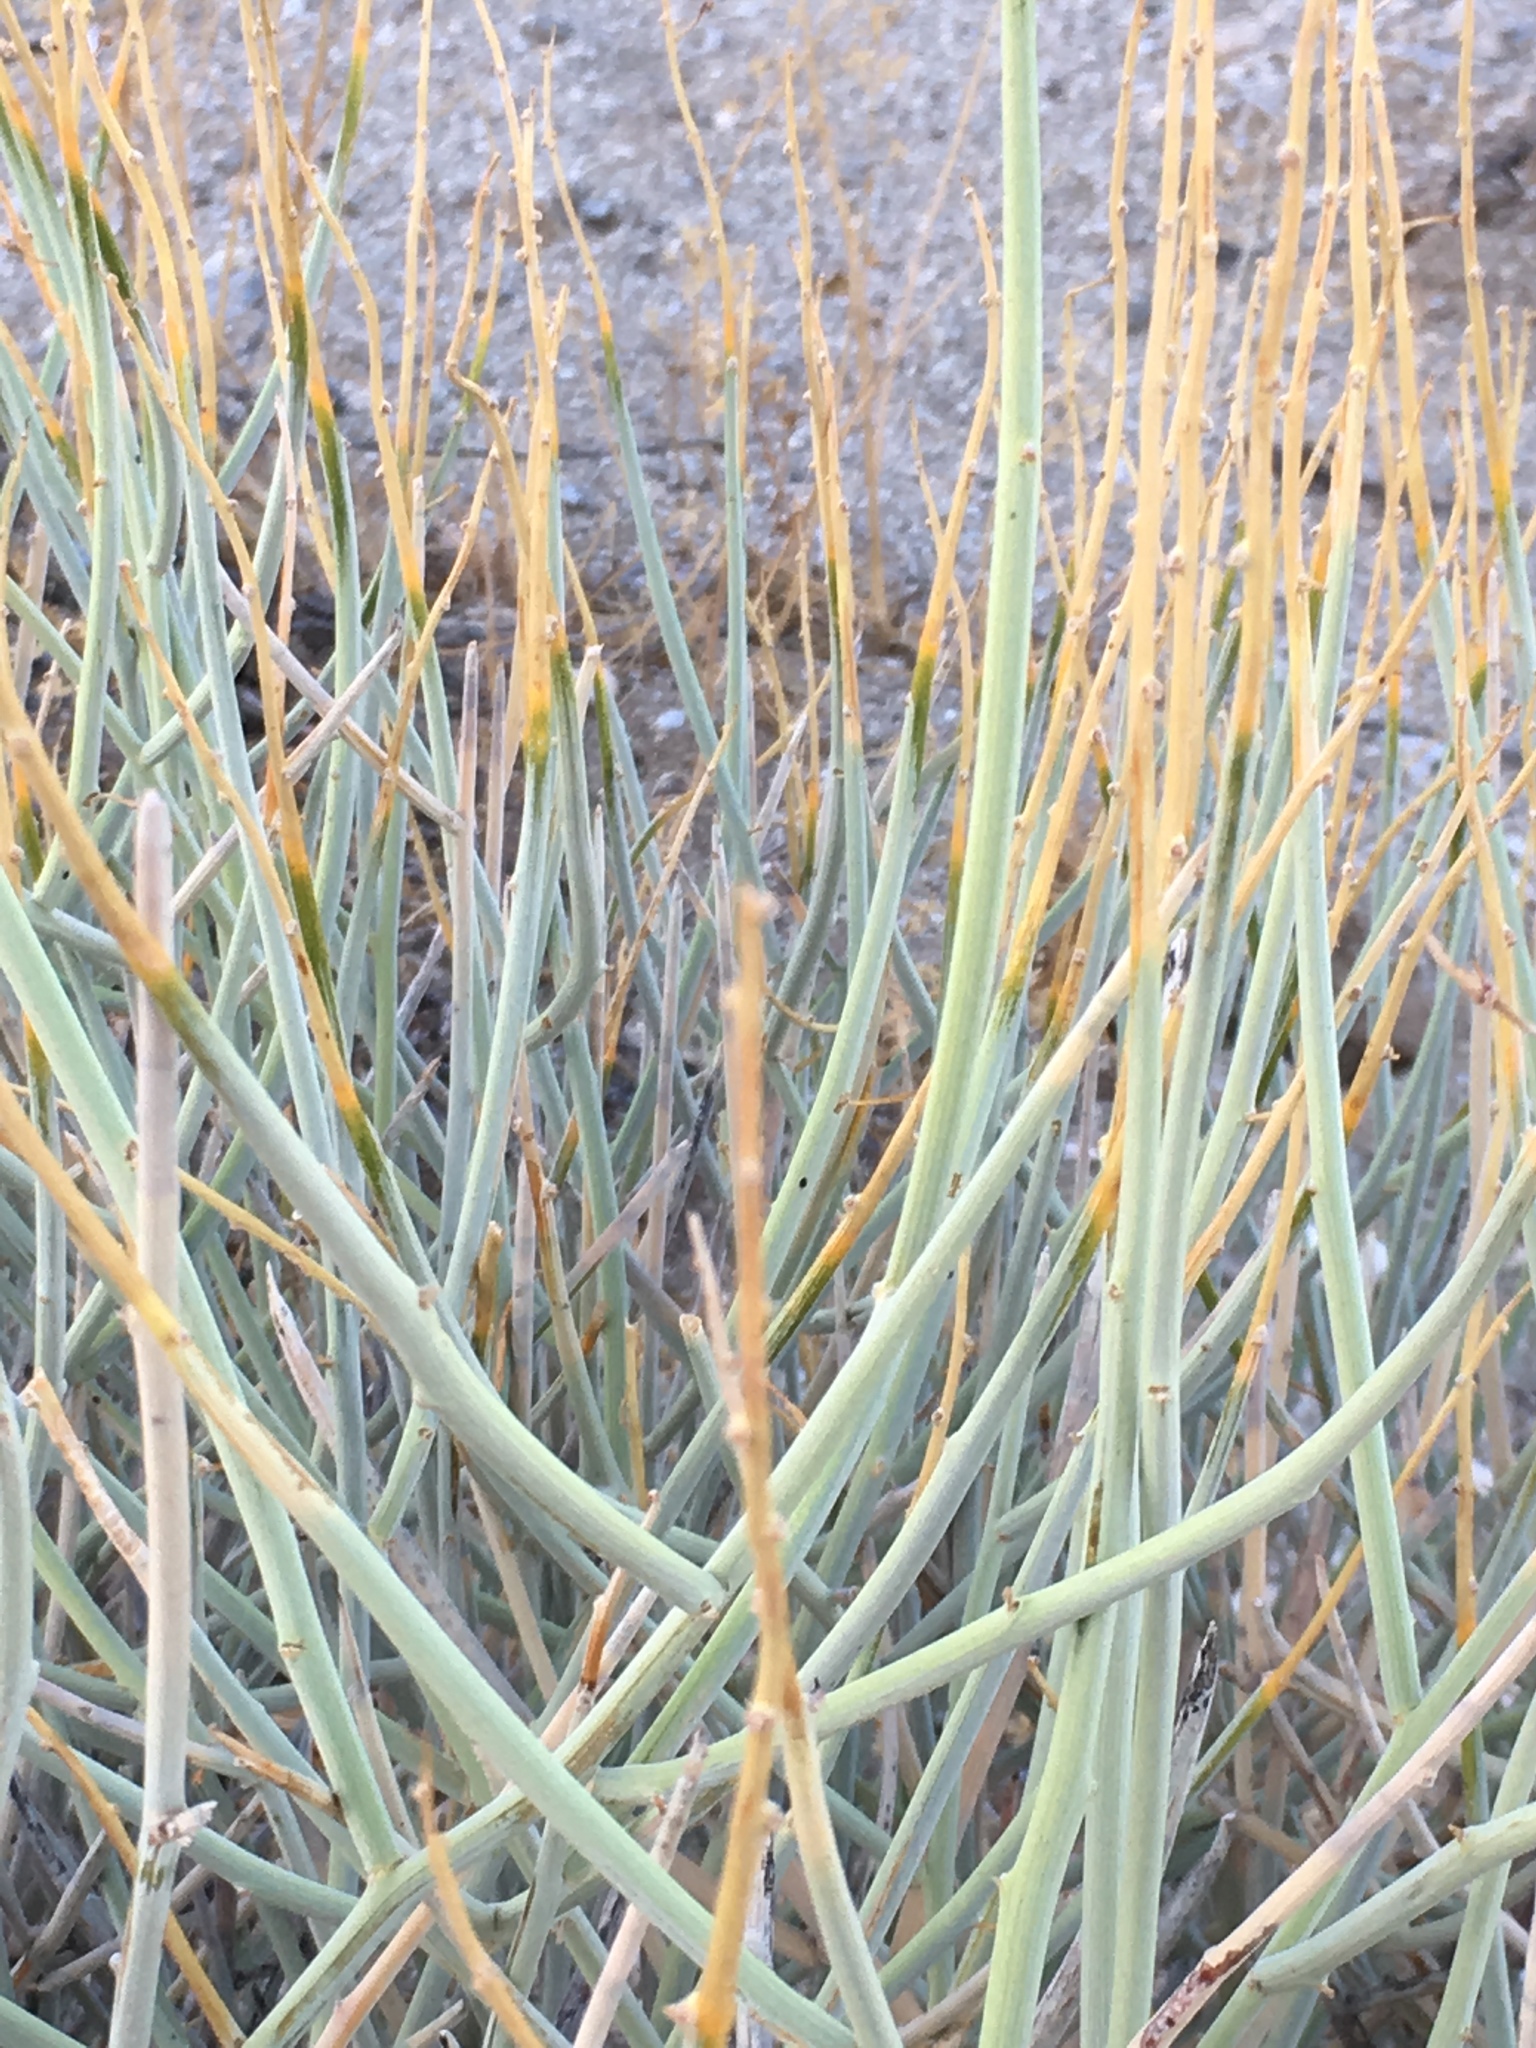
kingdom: Plantae
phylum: Tracheophyta
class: Magnoliopsida
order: Fabales
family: Fabaceae
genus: Senna
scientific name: Senna armata
